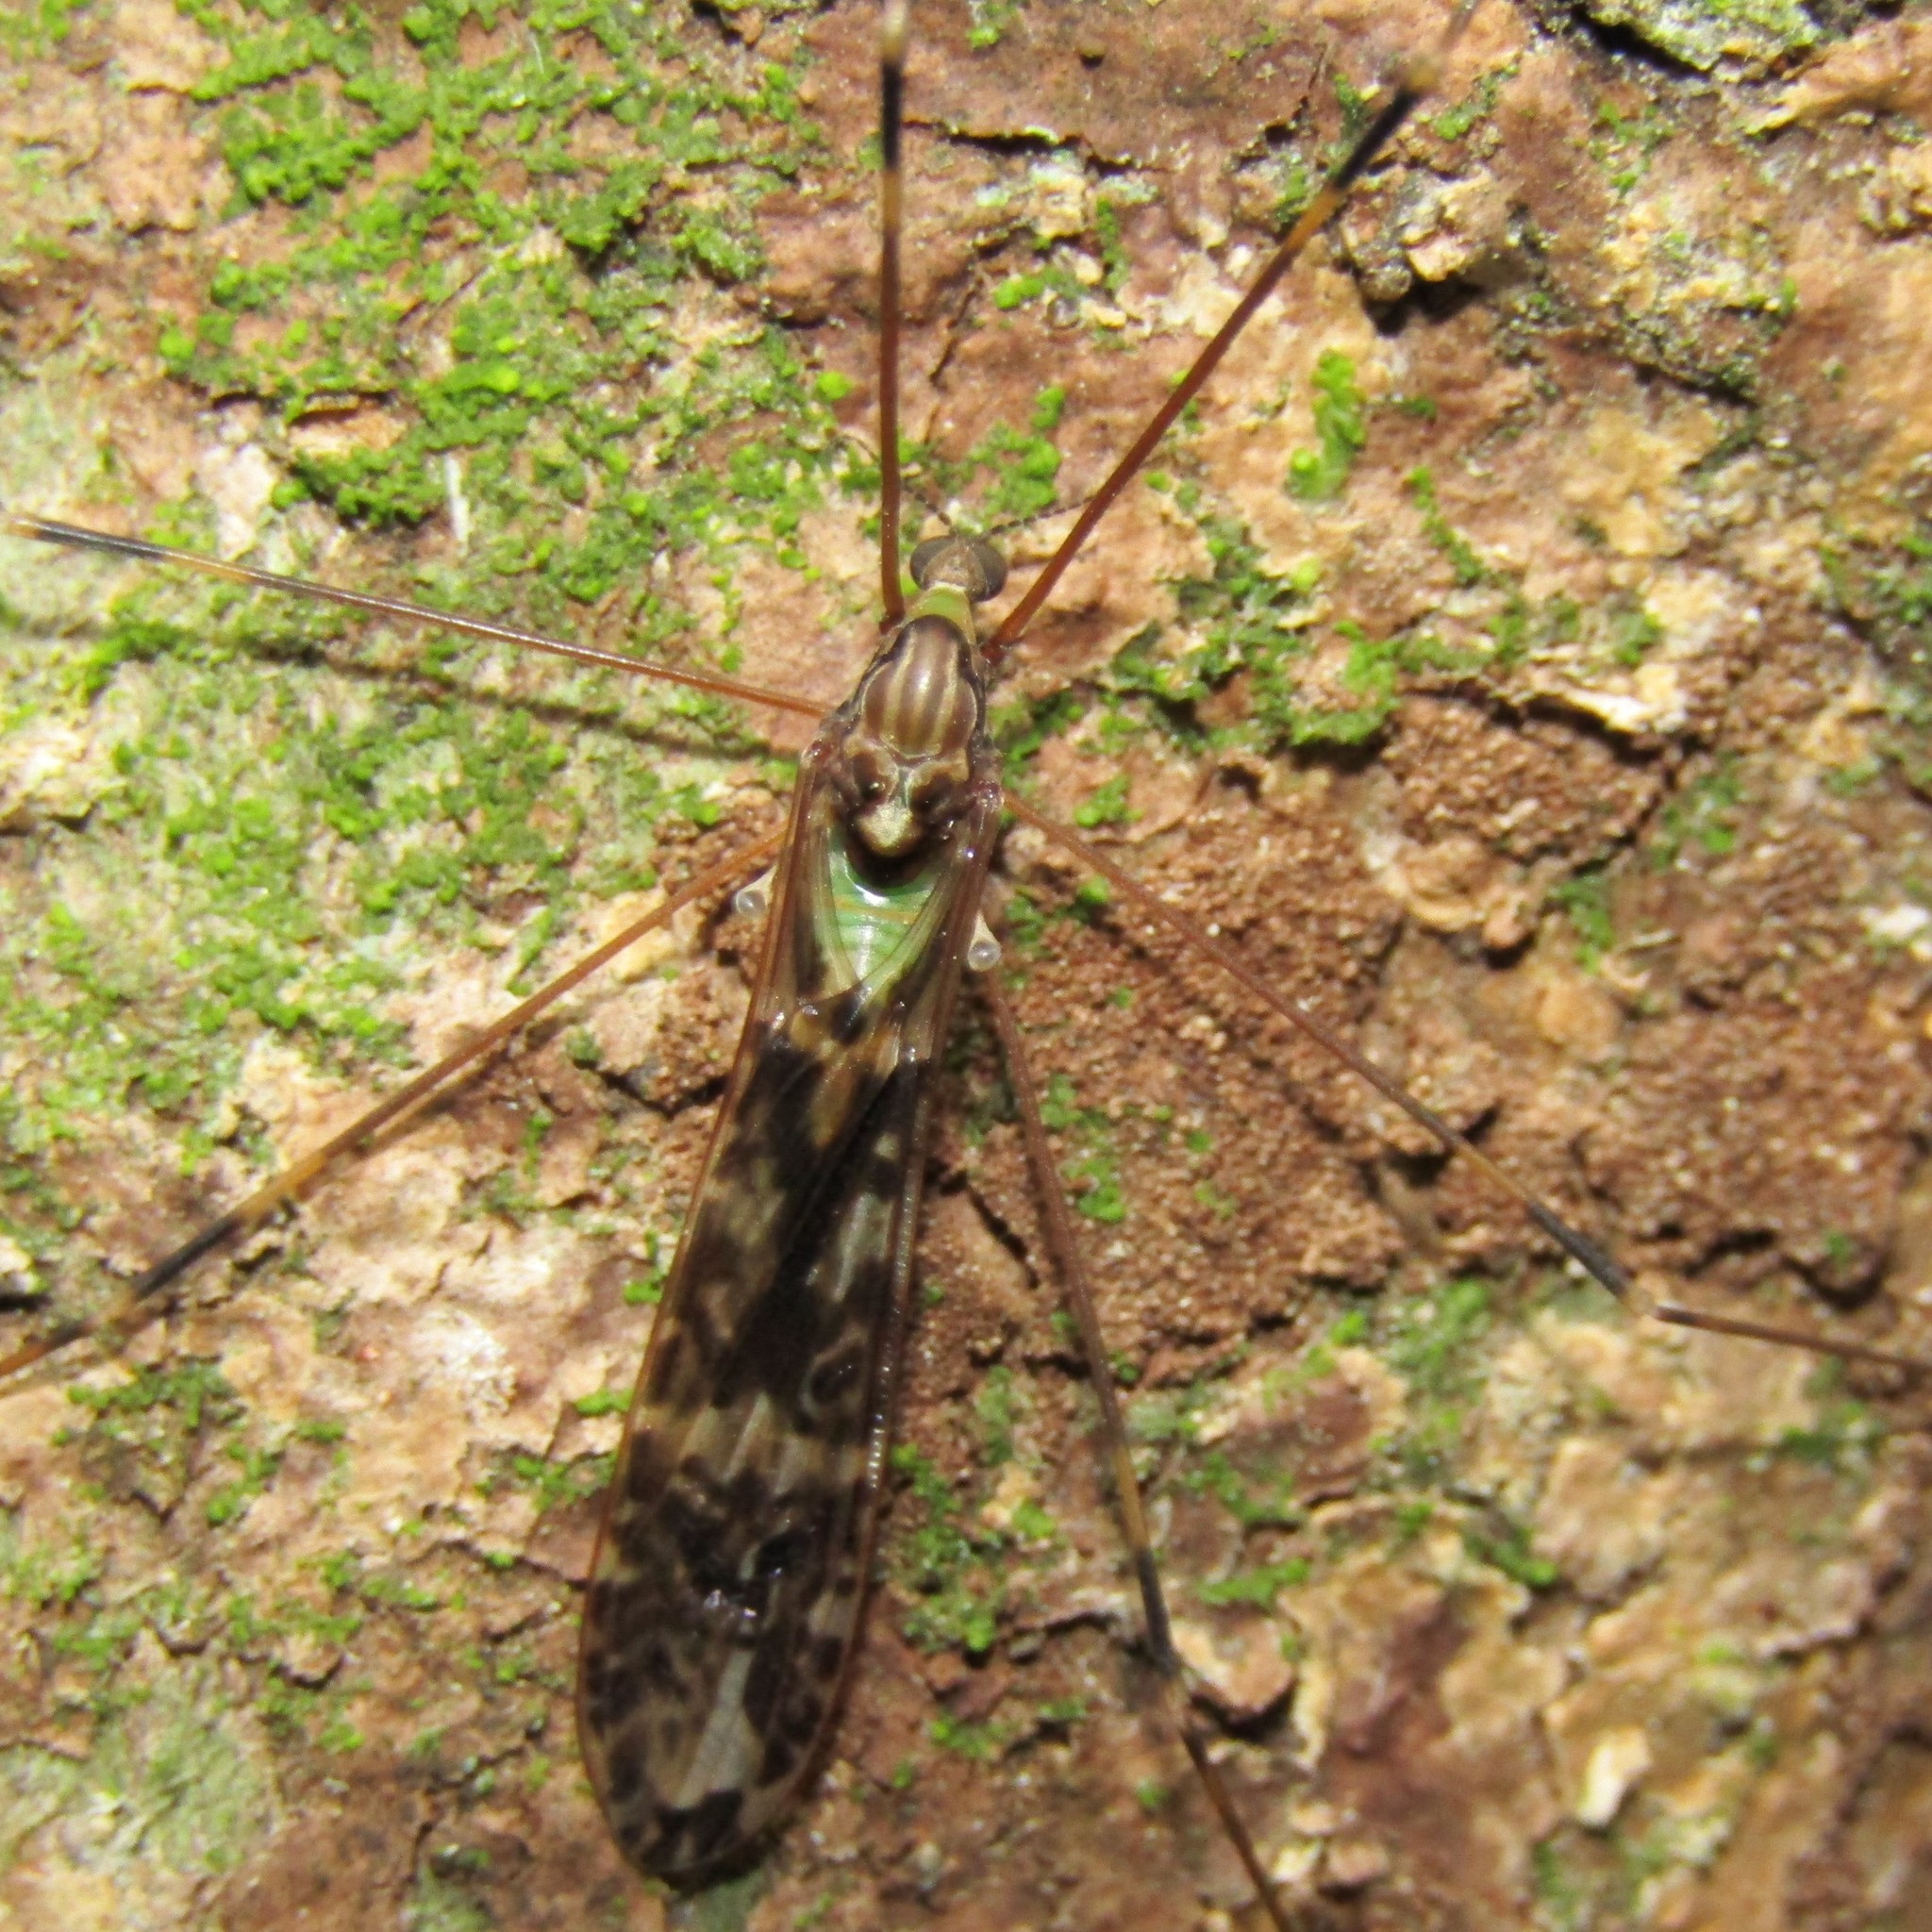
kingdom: Animalia
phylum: Arthropoda
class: Insecta
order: Diptera
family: Limoniidae
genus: Discobola
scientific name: Discobola dohrni
